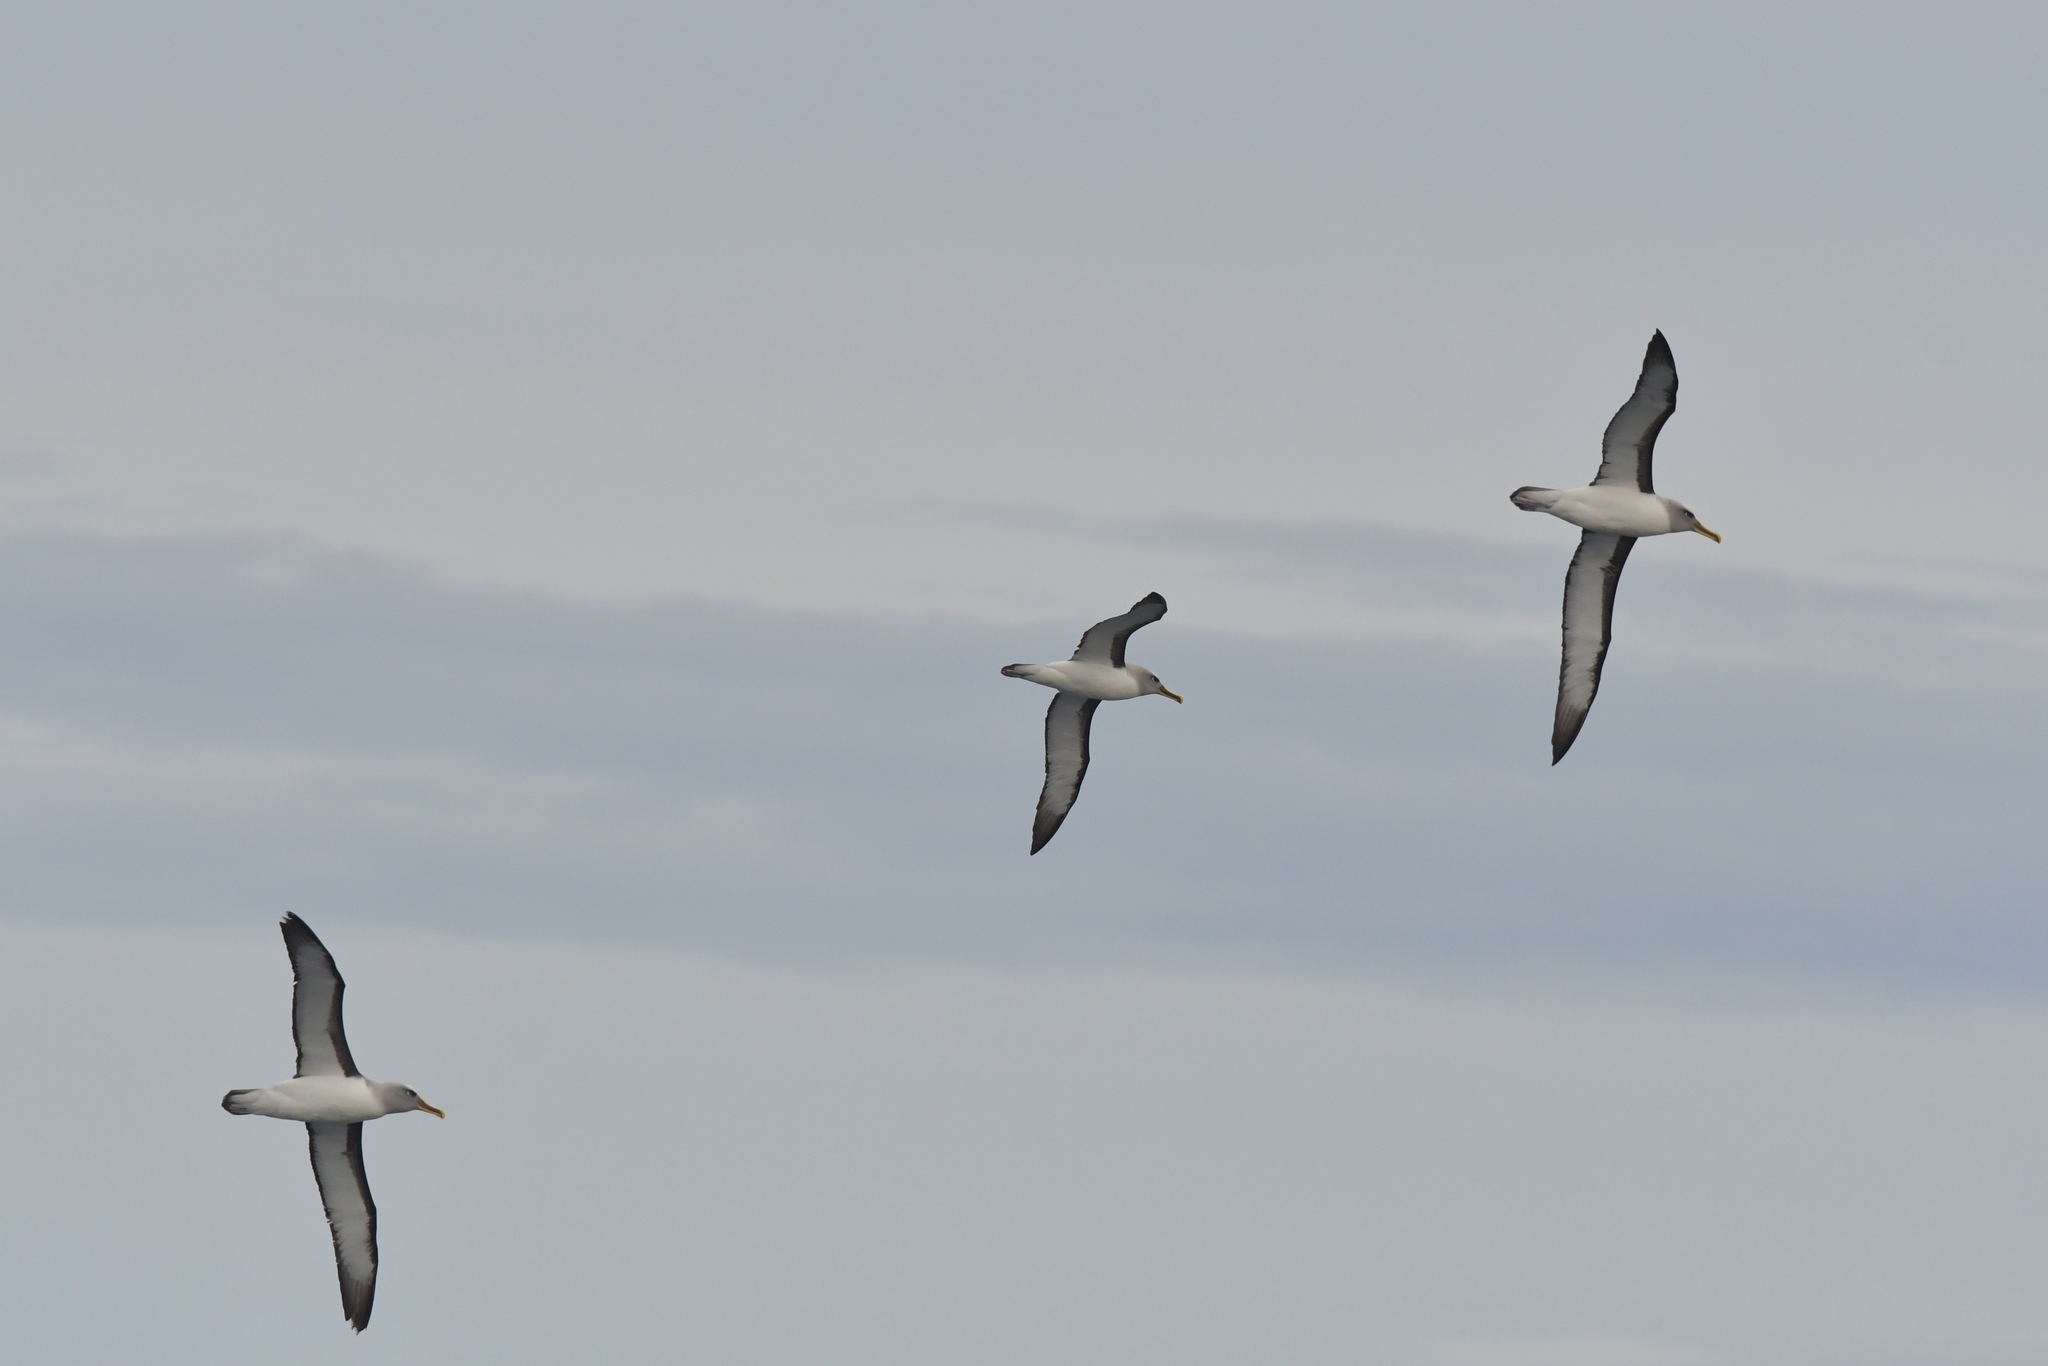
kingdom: Animalia
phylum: Chordata
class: Aves
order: Procellariiformes
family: Diomedeidae
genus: Thalassarche
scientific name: Thalassarche bulleri
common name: Buller's albatross
